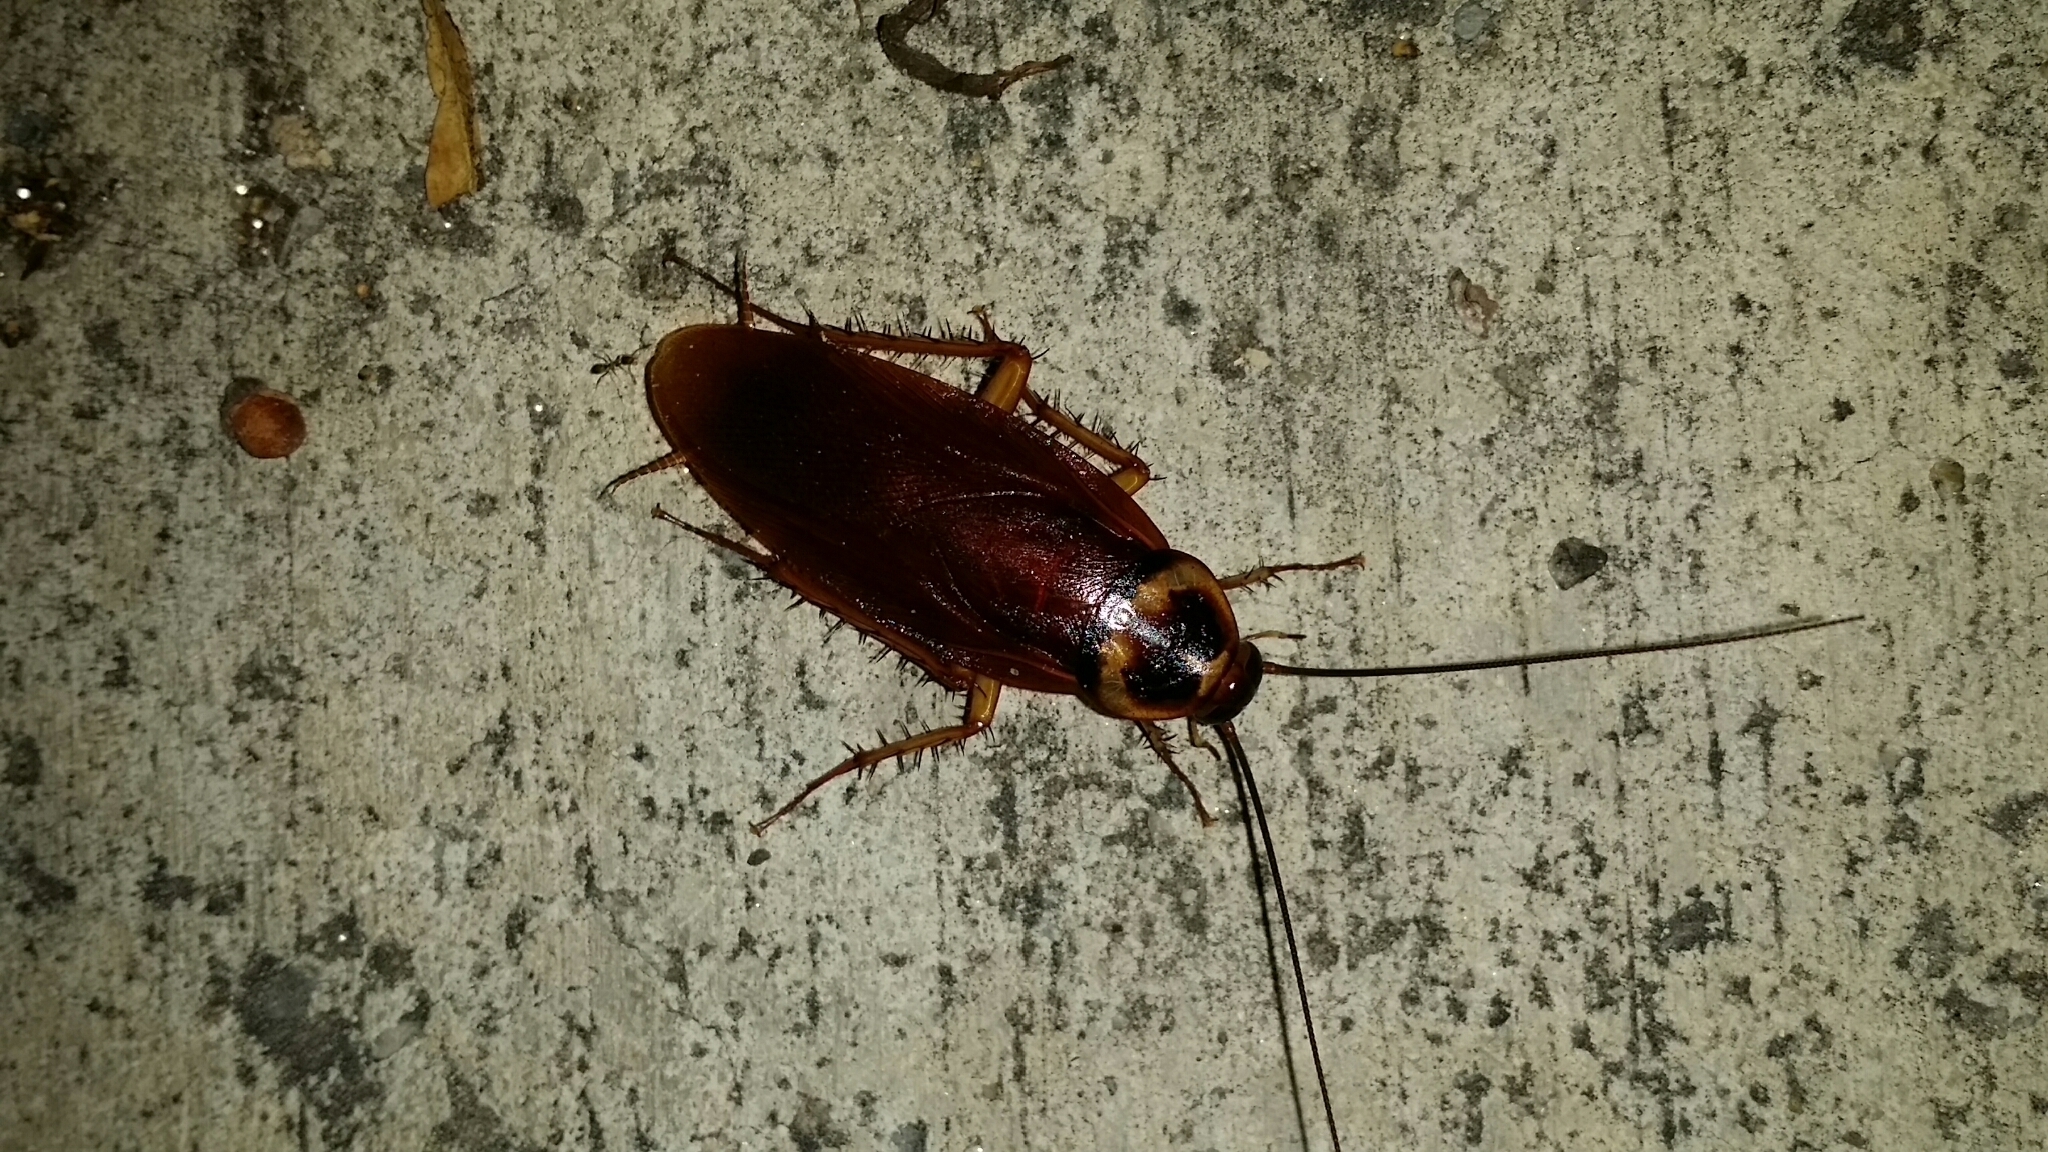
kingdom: Animalia
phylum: Arthropoda
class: Insecta
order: Blattodea
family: Blattidae
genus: Periplaneta
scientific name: Periplaneta americana
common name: American cockroach
